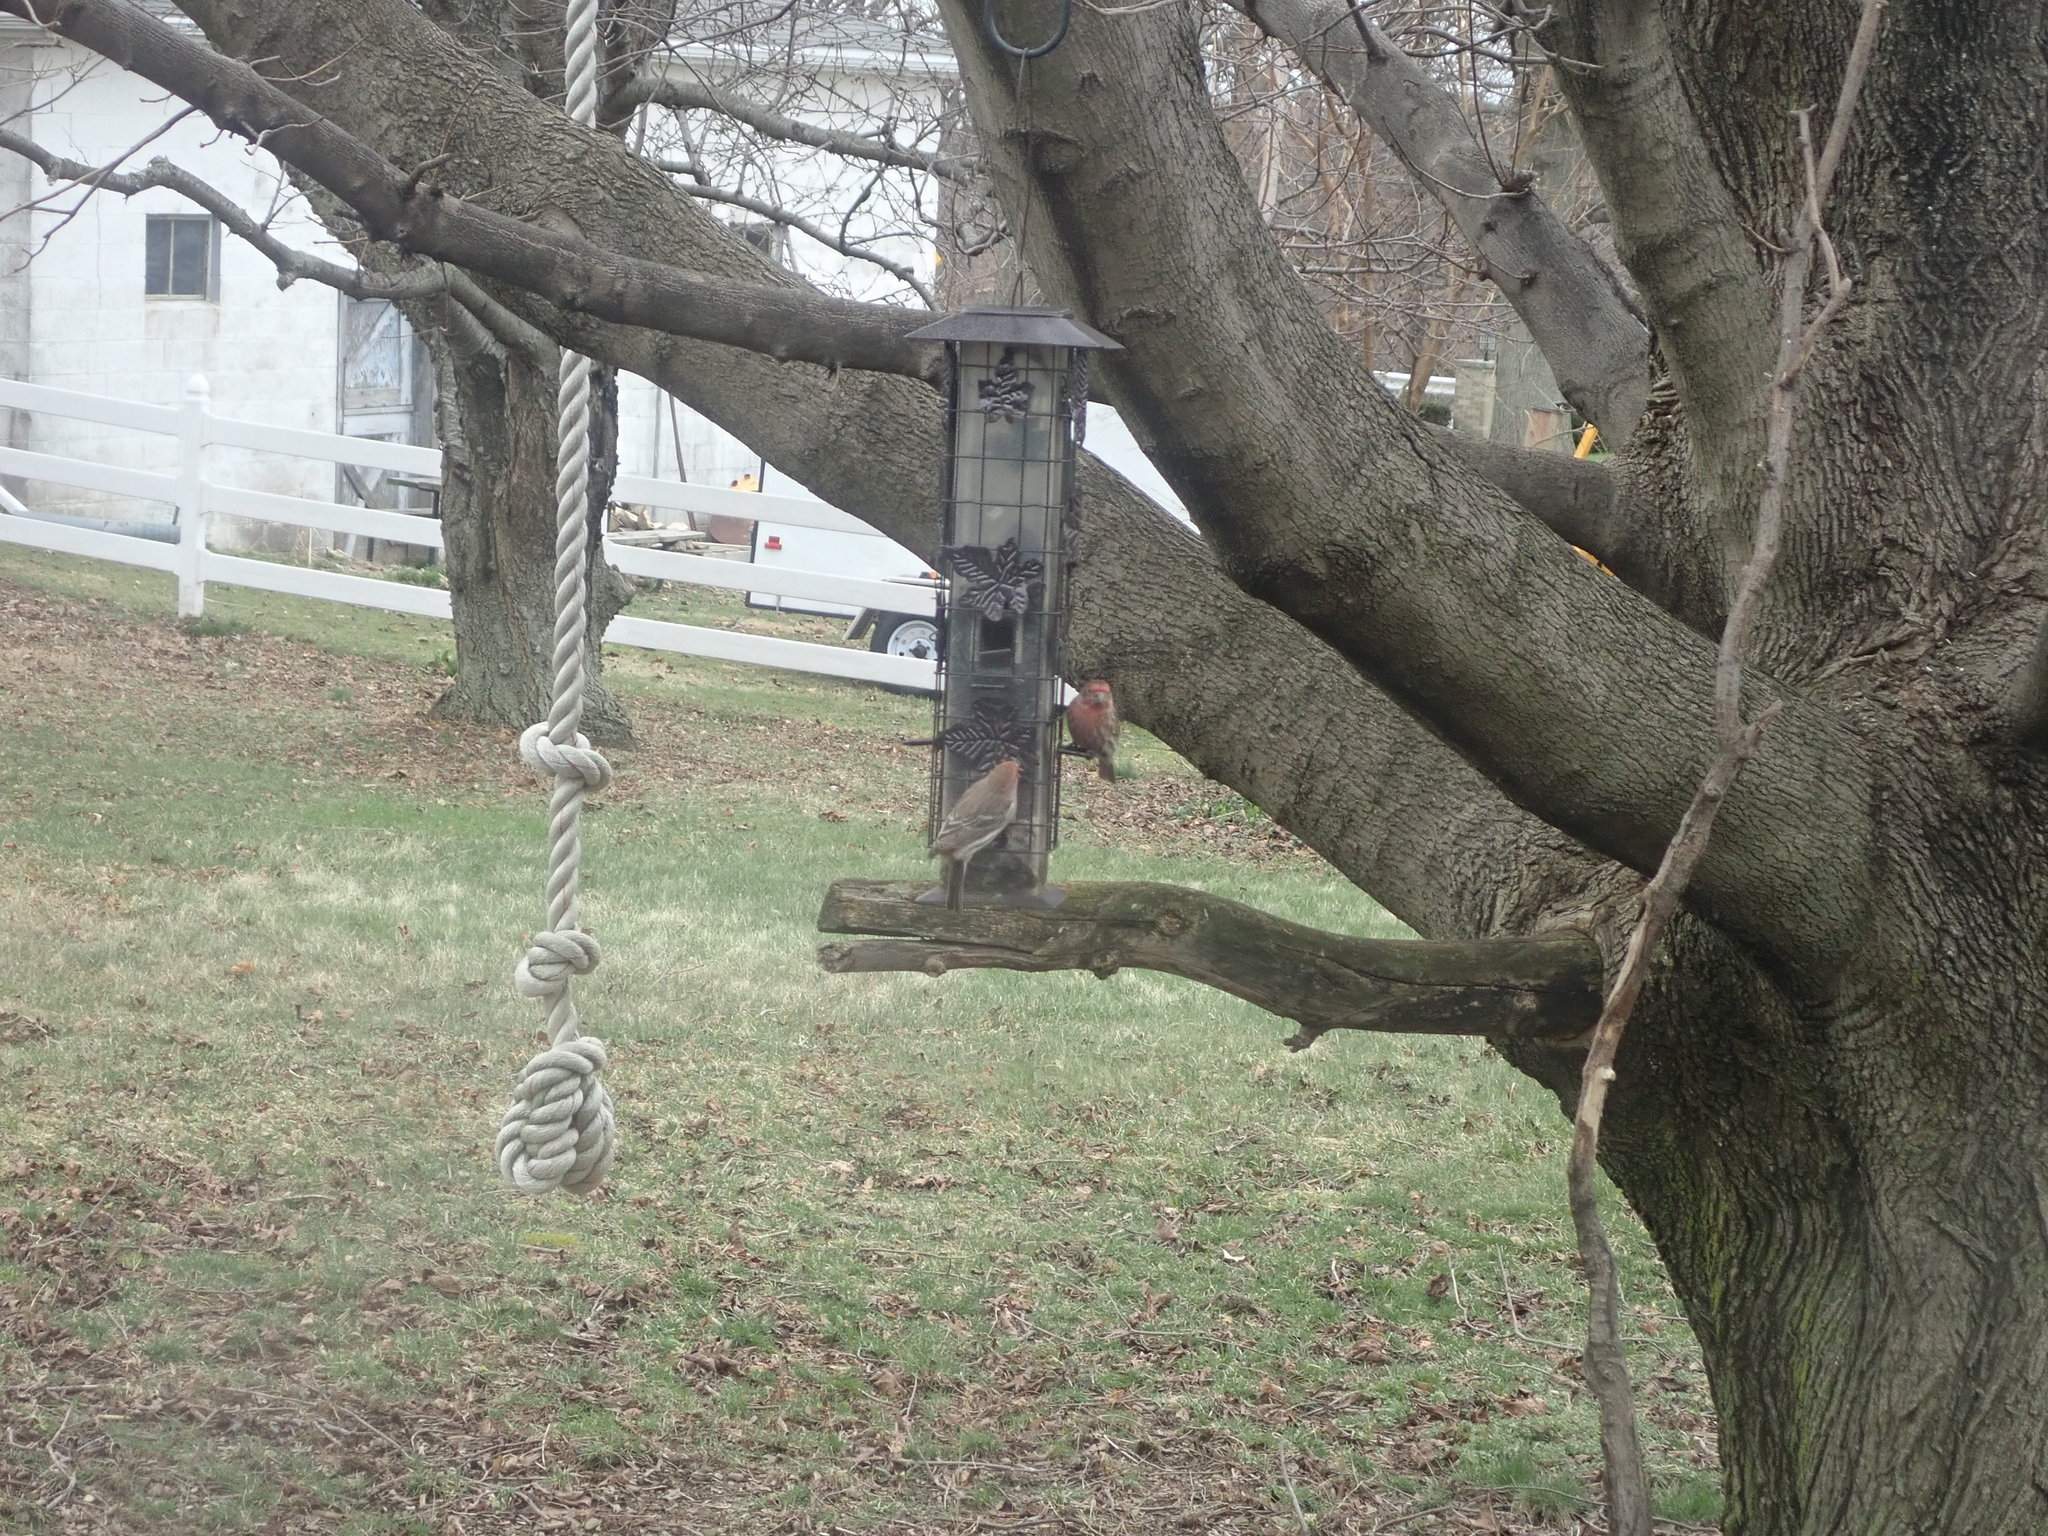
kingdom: Animalia
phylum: Chordata
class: Aves
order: Passeriformes
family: Fringillidae
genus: Haemorhous
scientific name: Haemorhous mexicanus
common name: House finch
